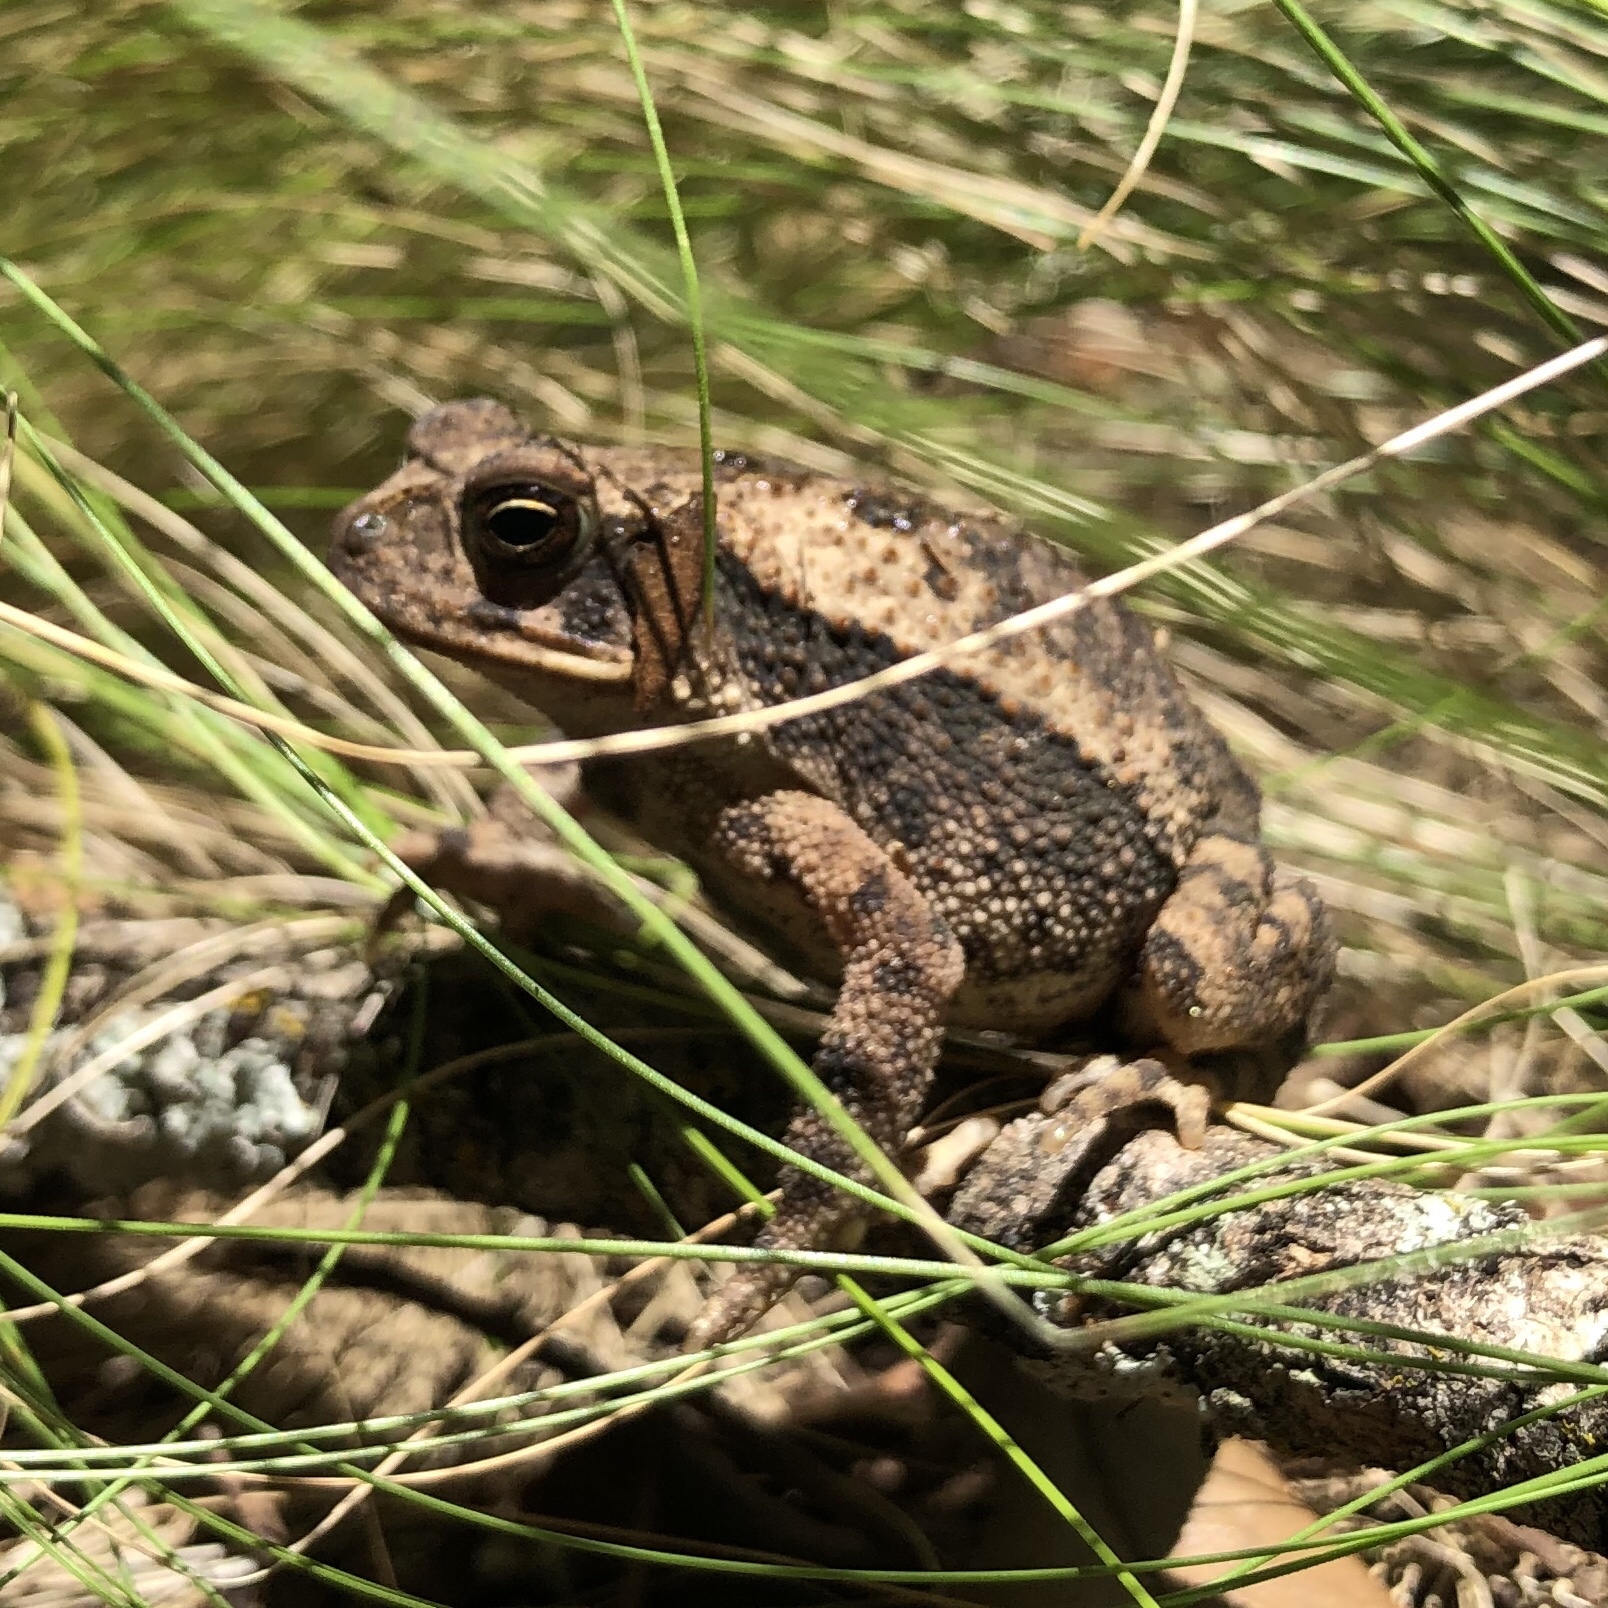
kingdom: Animalia
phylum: Chordata
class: Amphibia
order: Anura
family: Bufonidae
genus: Incilius
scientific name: Incilius nebulifer
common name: Gulf coast toad
